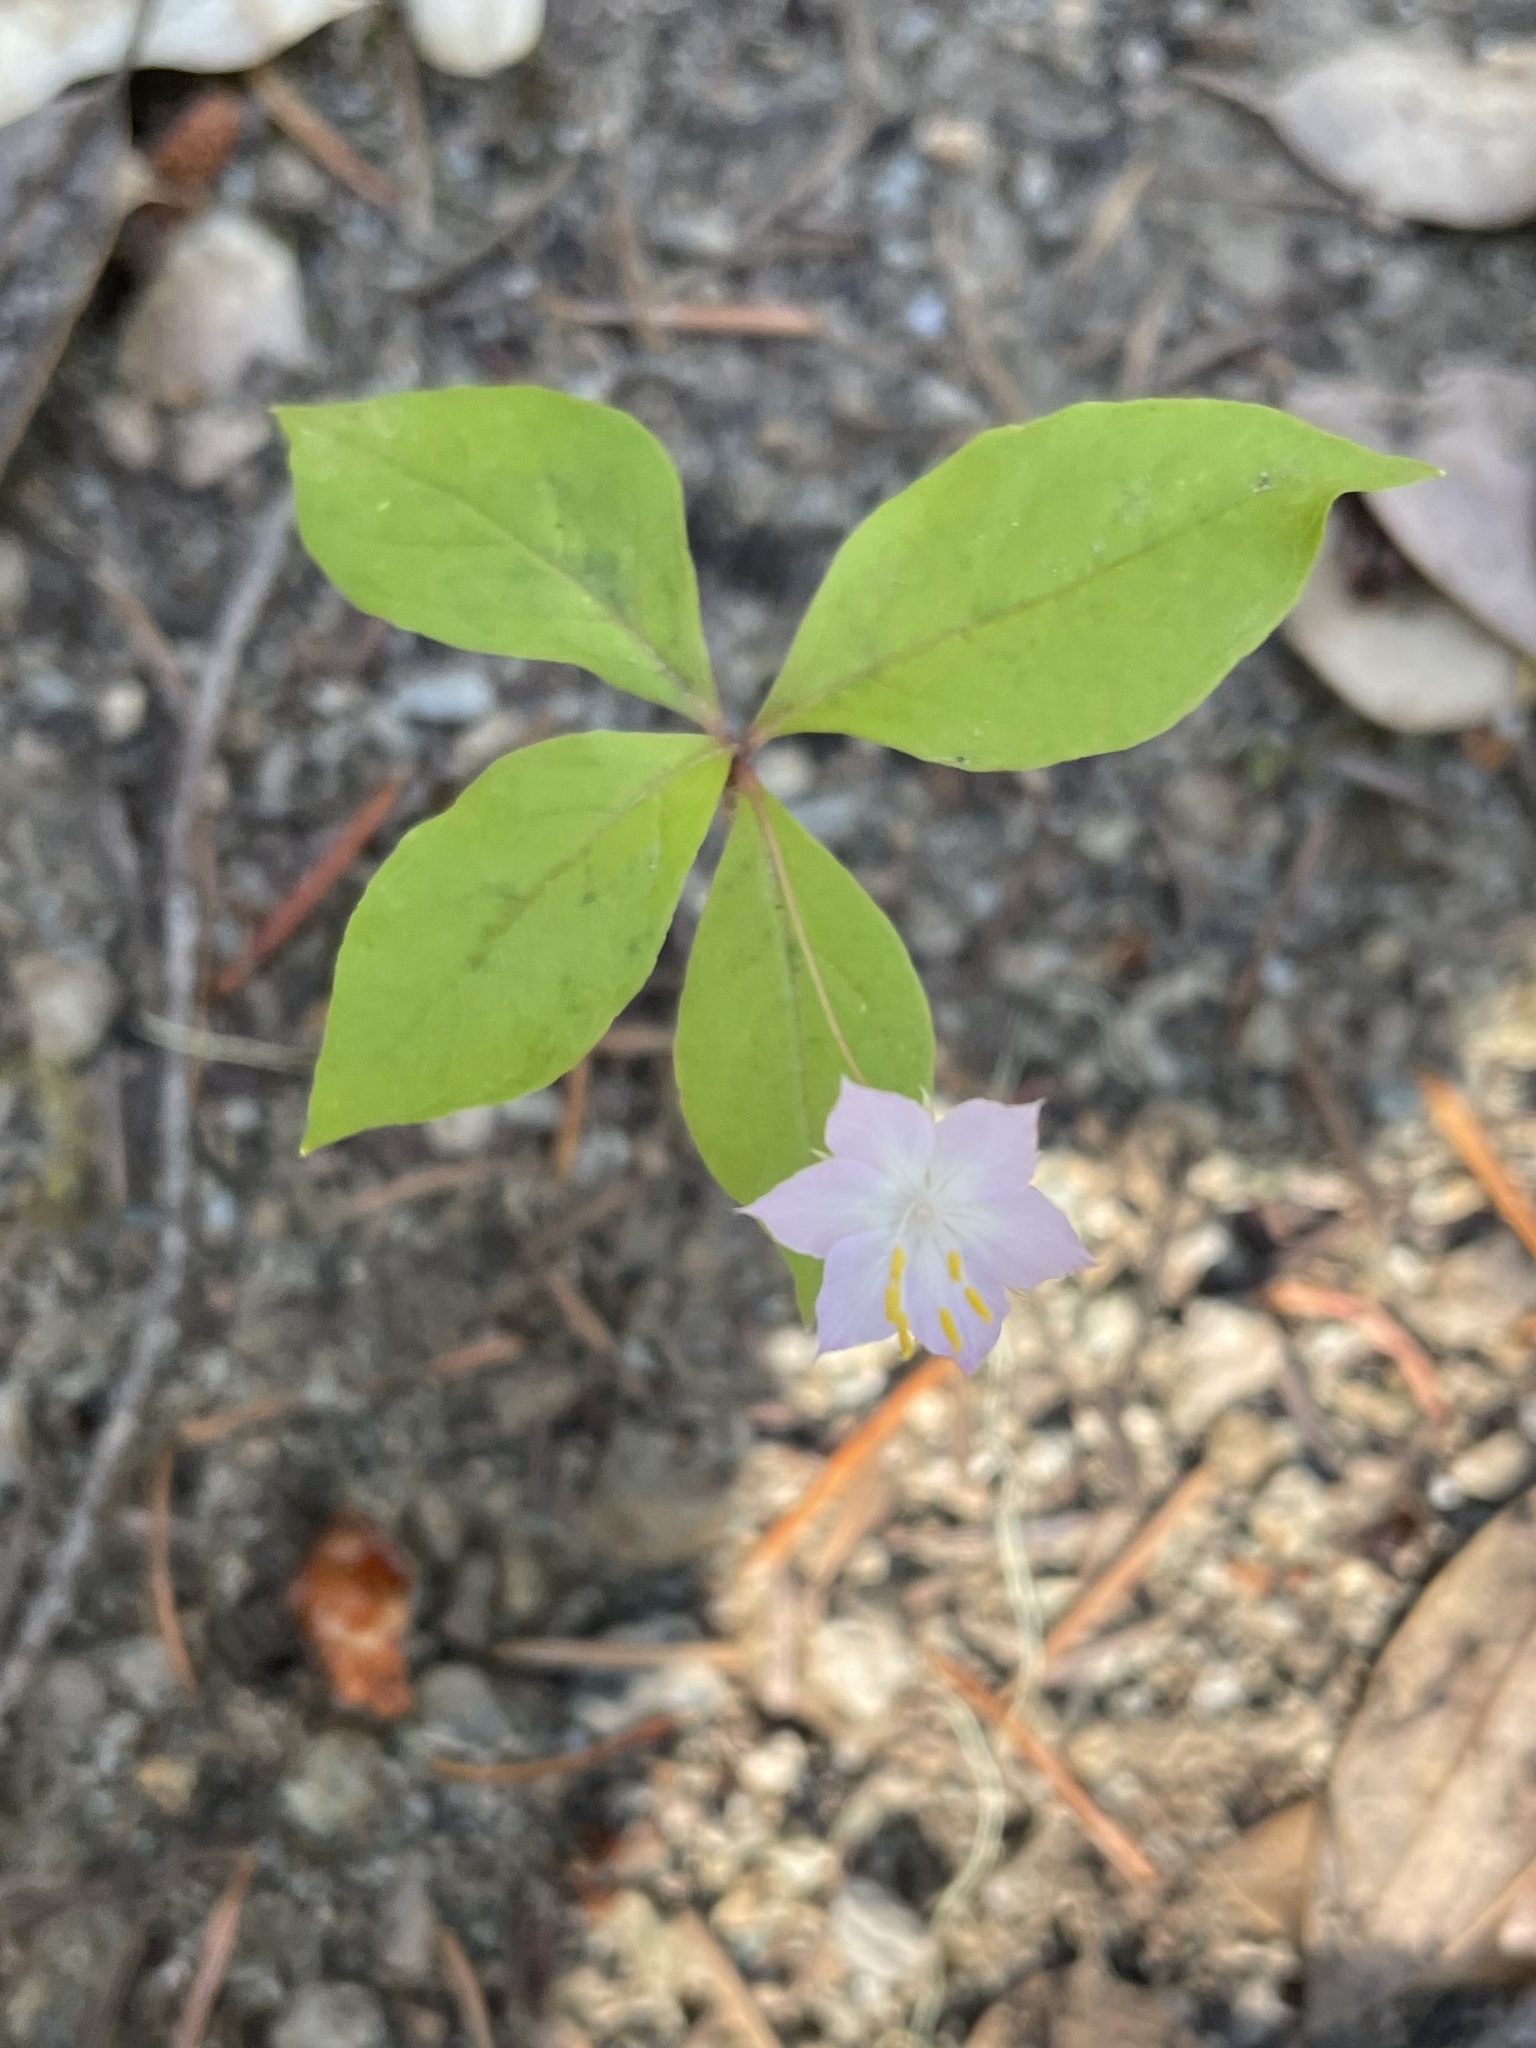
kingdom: Plantae
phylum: Tracheophyta
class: Magnoliopsida
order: Ericales
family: Primulaceae
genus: Lysimachia
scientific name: Lysimachia latifolia
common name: Pacific starflower
